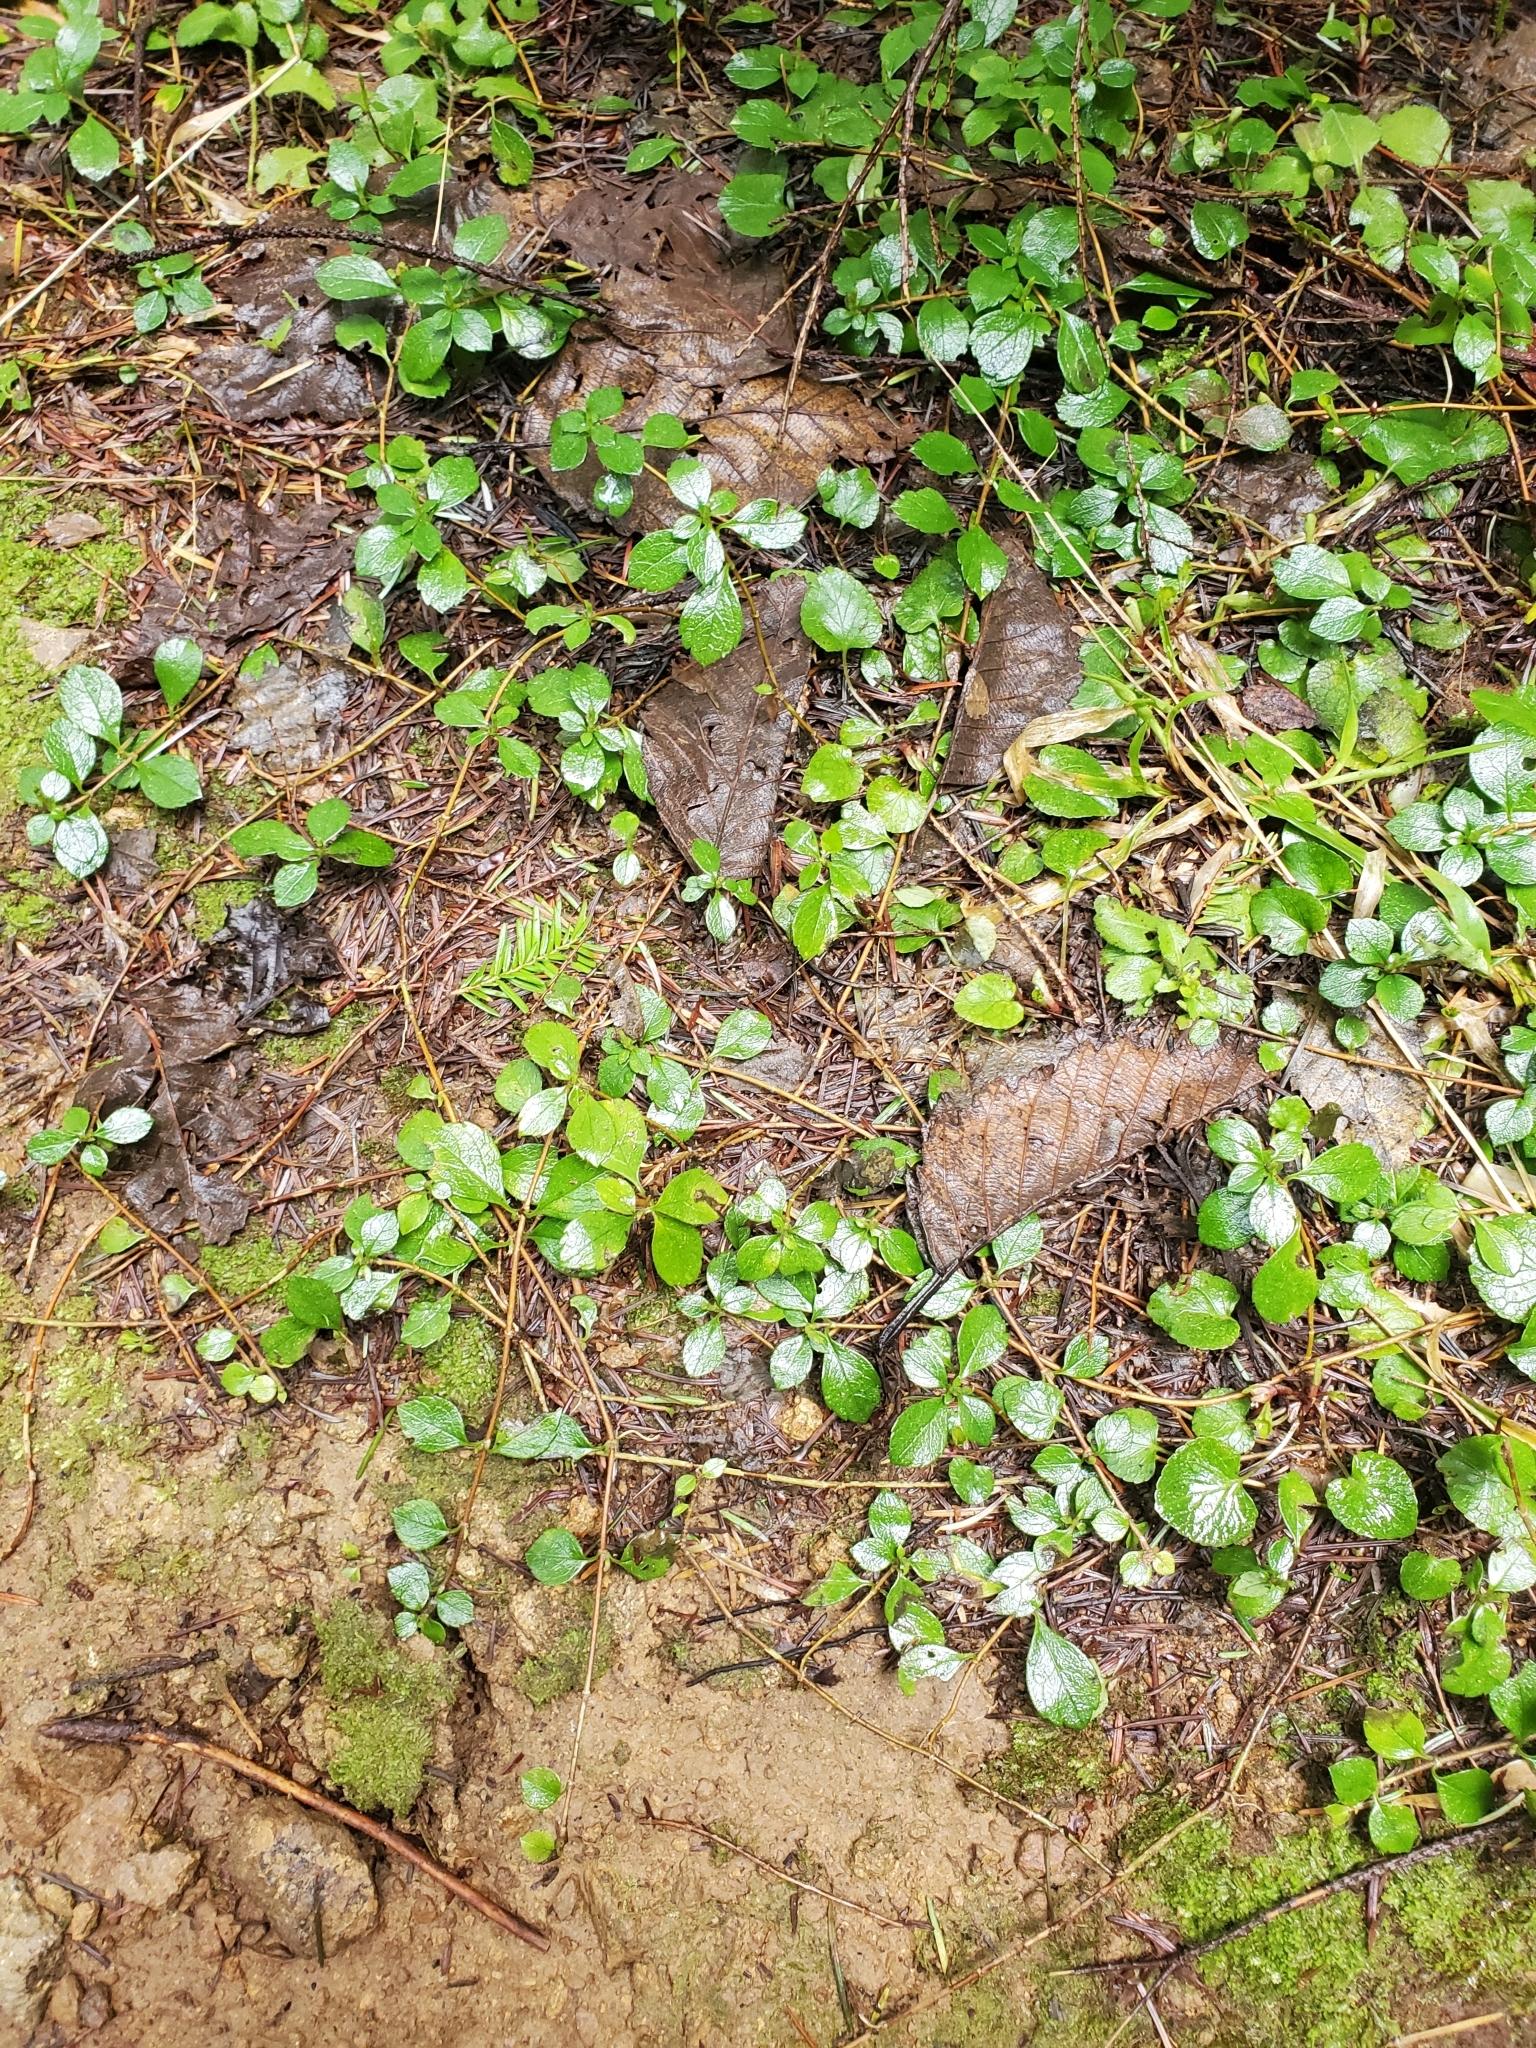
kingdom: Plantae
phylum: Tracheophyta
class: Magnoliopsida
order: Dipsacales
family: Caprifoliaceae
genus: Linnaea
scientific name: Linnaea borealis
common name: Twinflower
